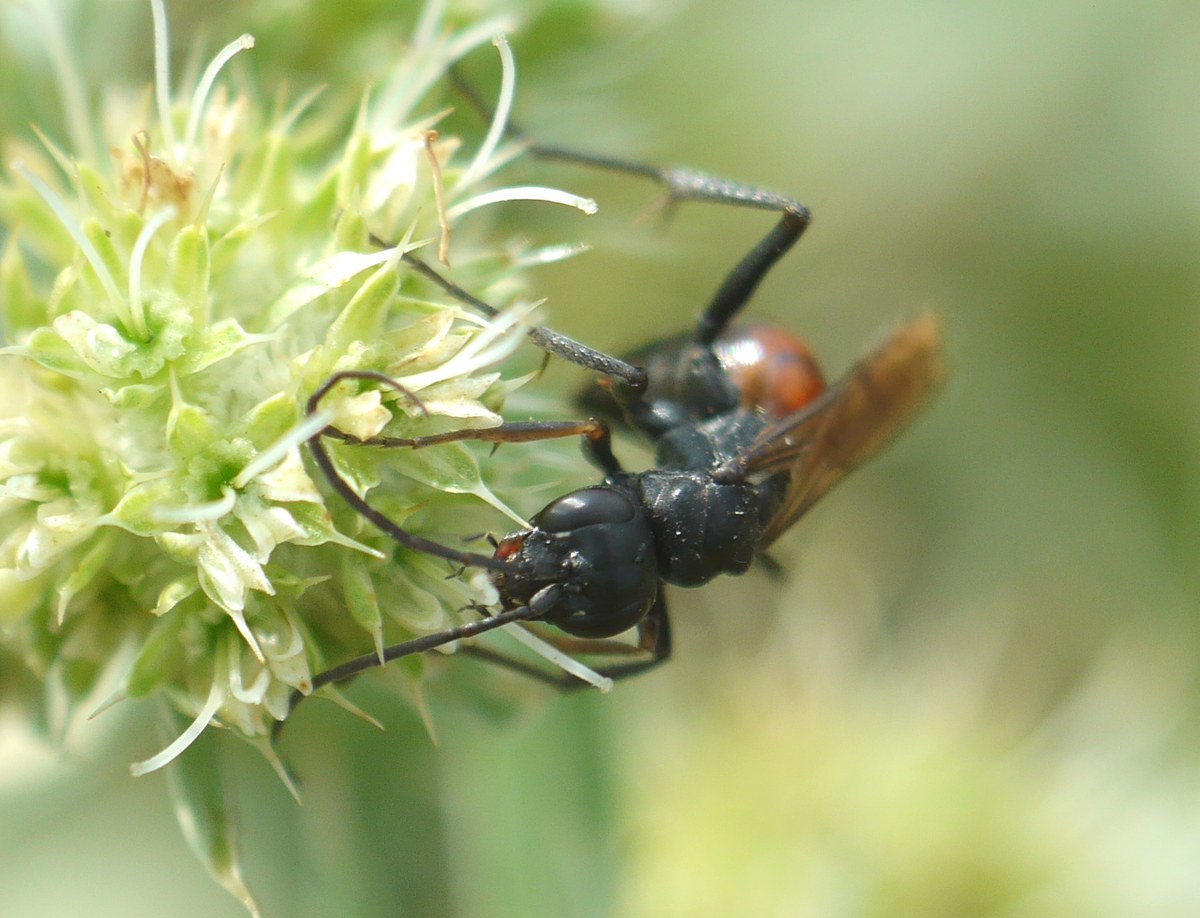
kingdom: Animalia
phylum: Arthropoda
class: Insecta
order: Hymenoptera
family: Pompilidae
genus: Cryptocheilus
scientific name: Cryptocheilus fischeri
